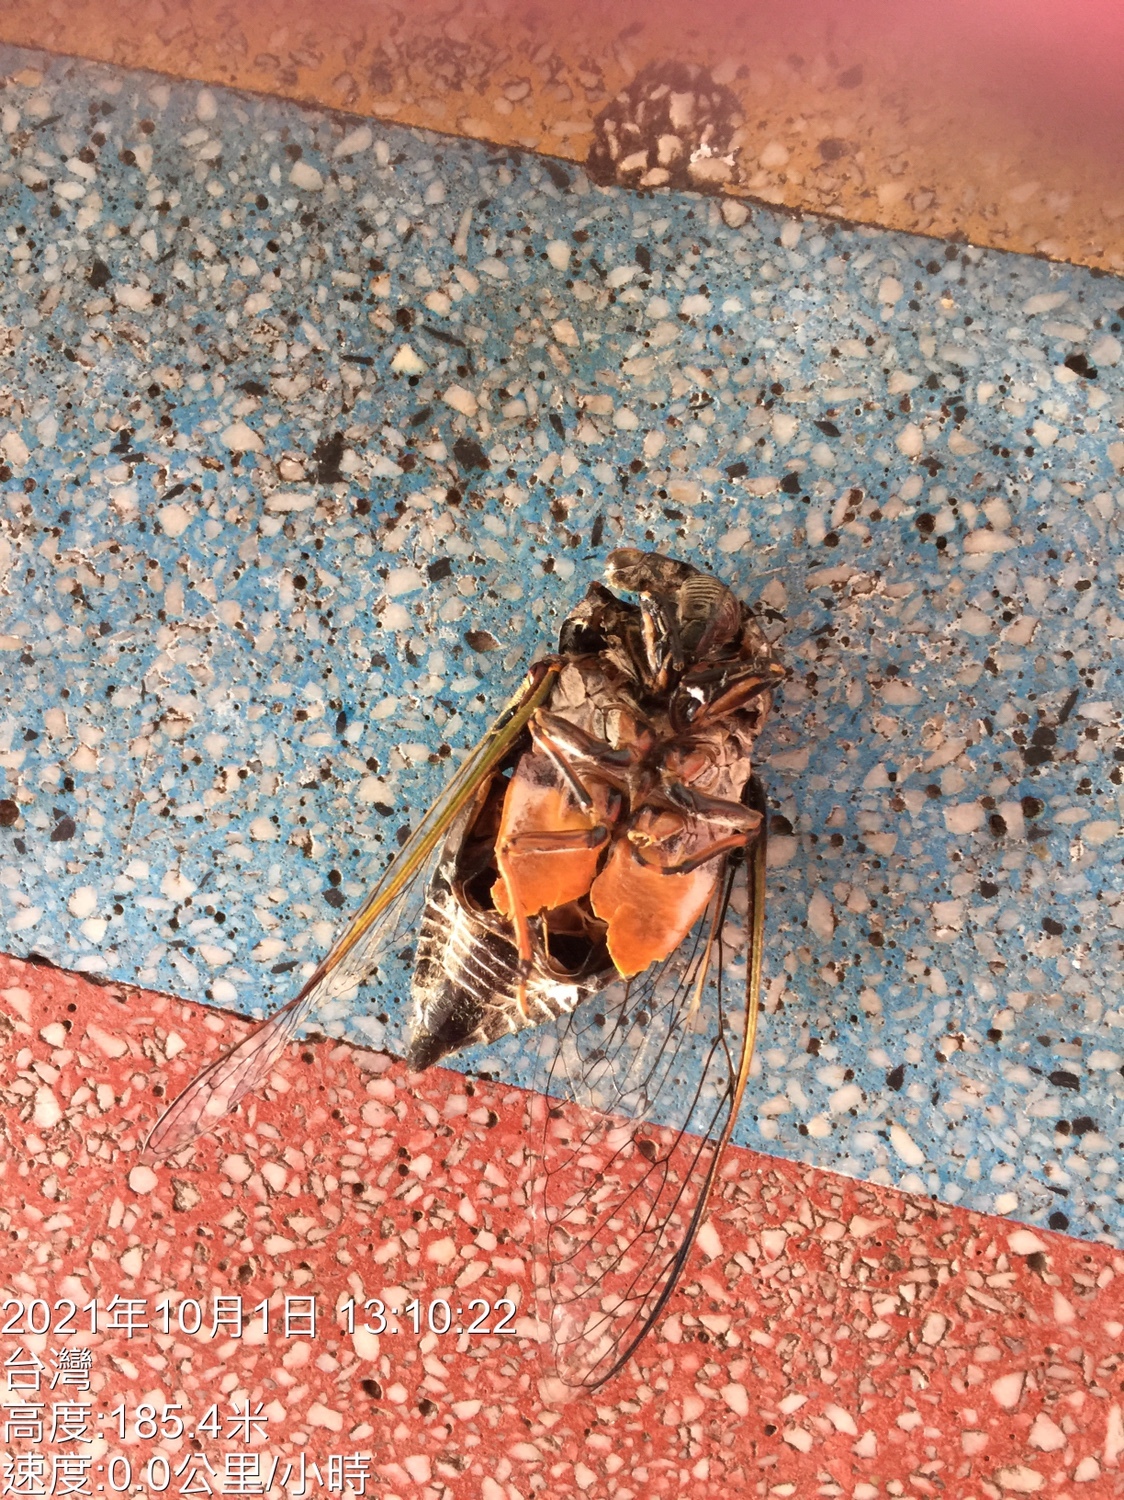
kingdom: Animalia
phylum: Arthropoda
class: Insecta
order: Hemiptera
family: Cicadidae
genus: Cryptotympana
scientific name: Cryptotympana takasagona
